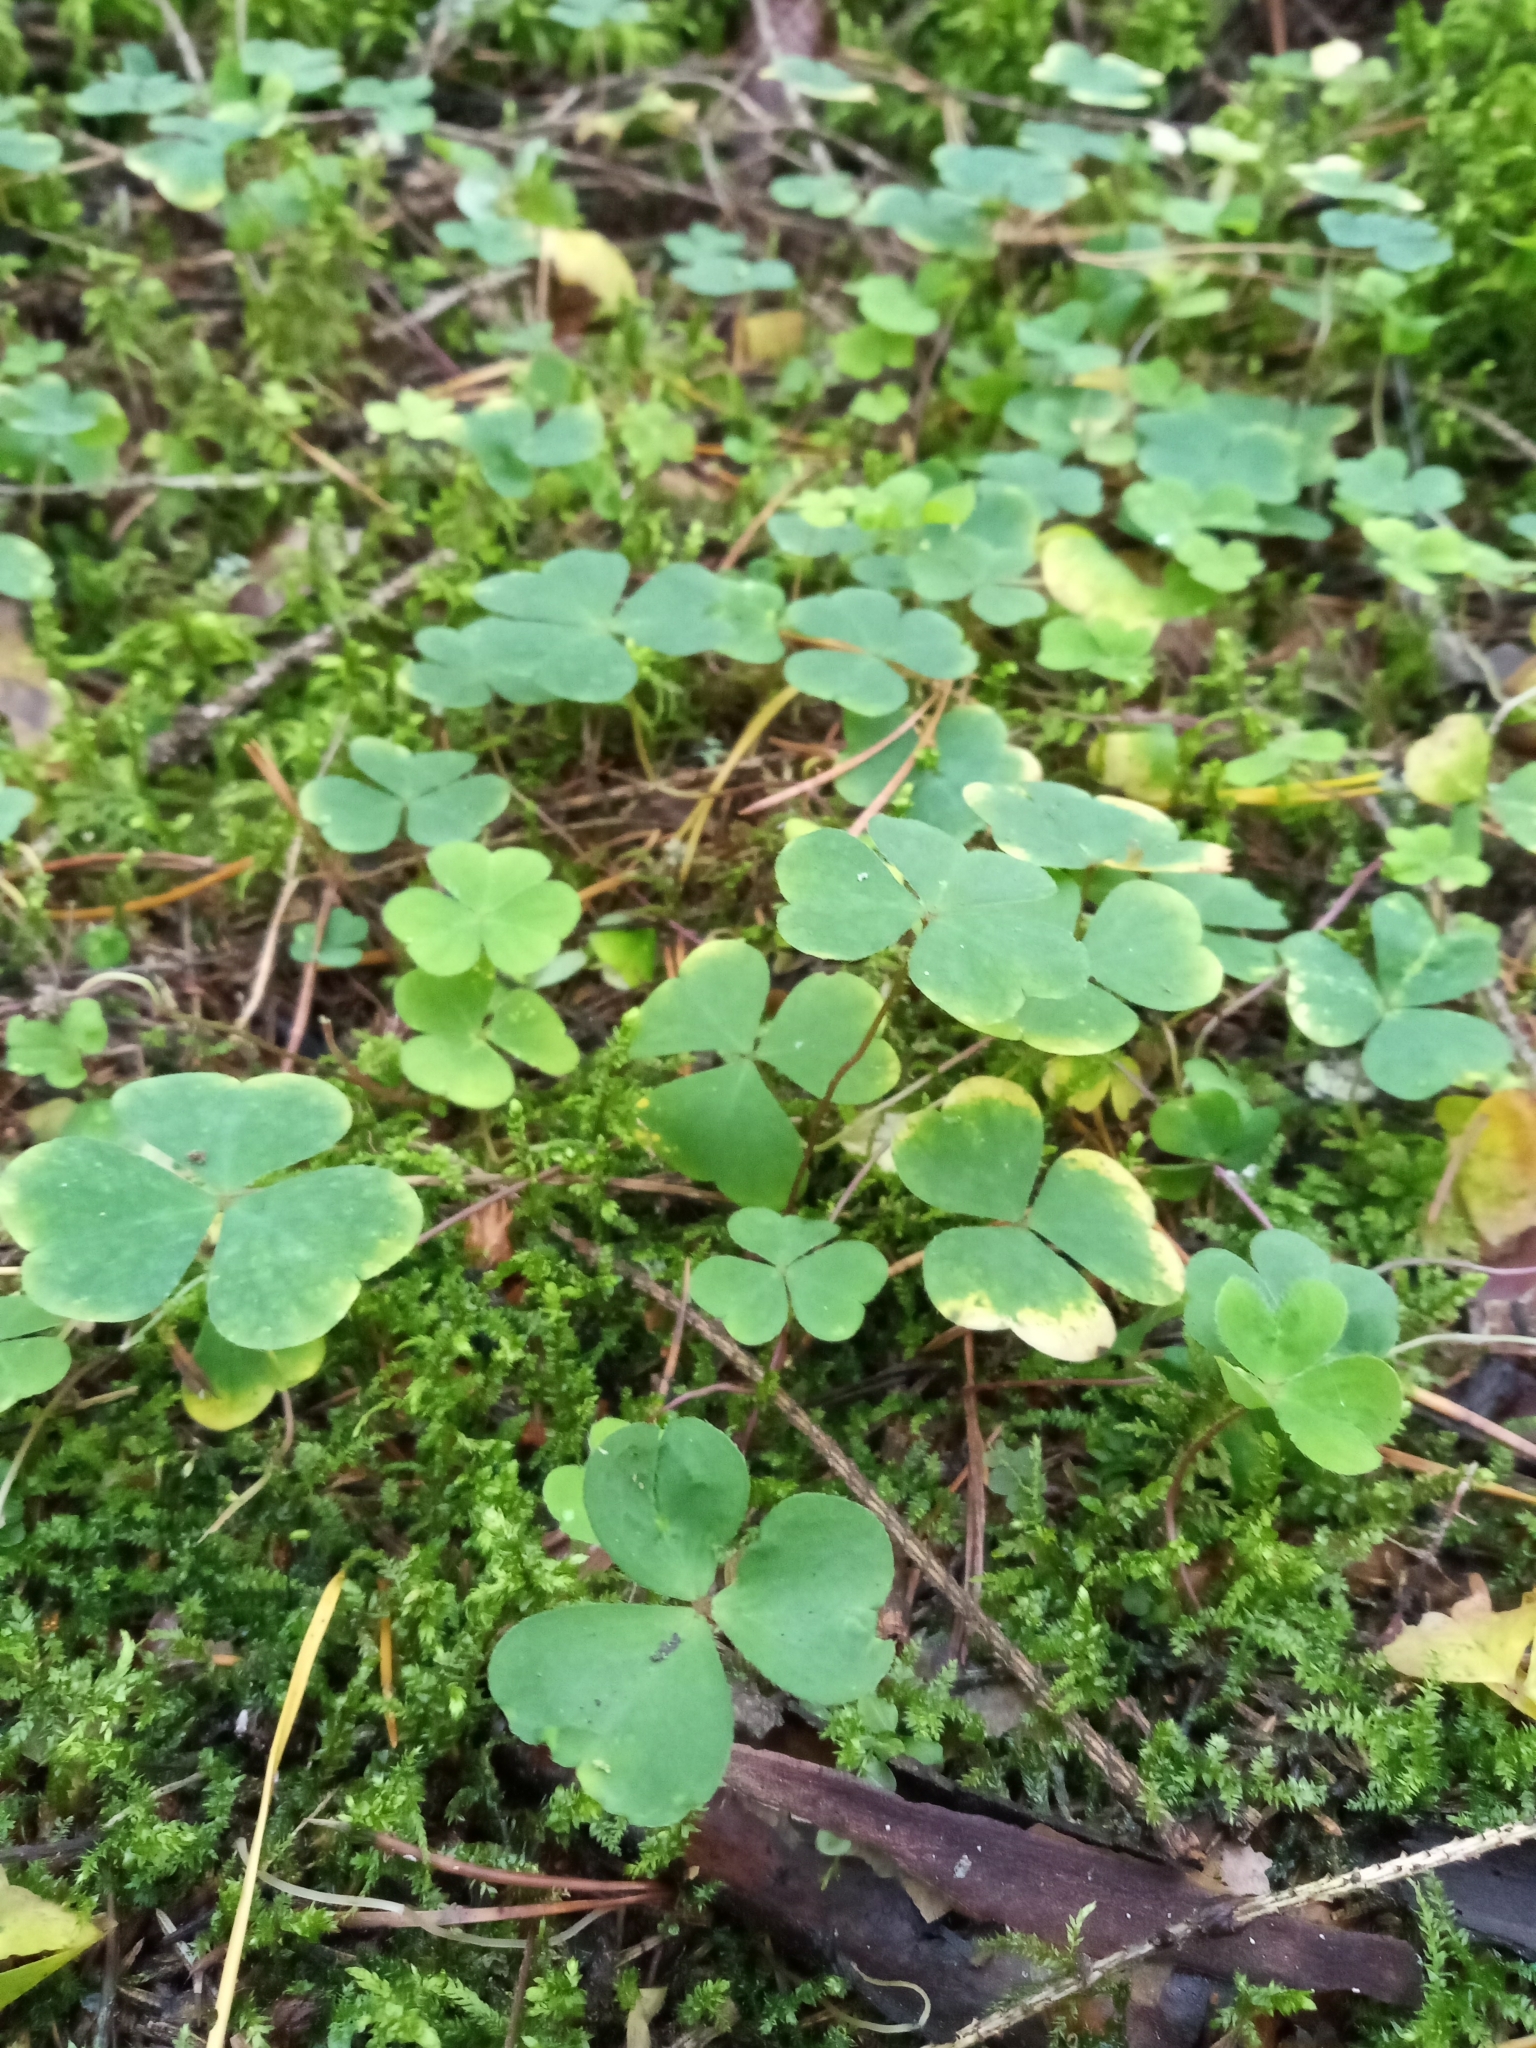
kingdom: Plantae
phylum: Tracheophyta
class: Magnoliopsida
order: Oxalidales
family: Oxalidaceae
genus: Oxalis
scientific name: Oxalis acetosella
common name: Wood-sorrel
